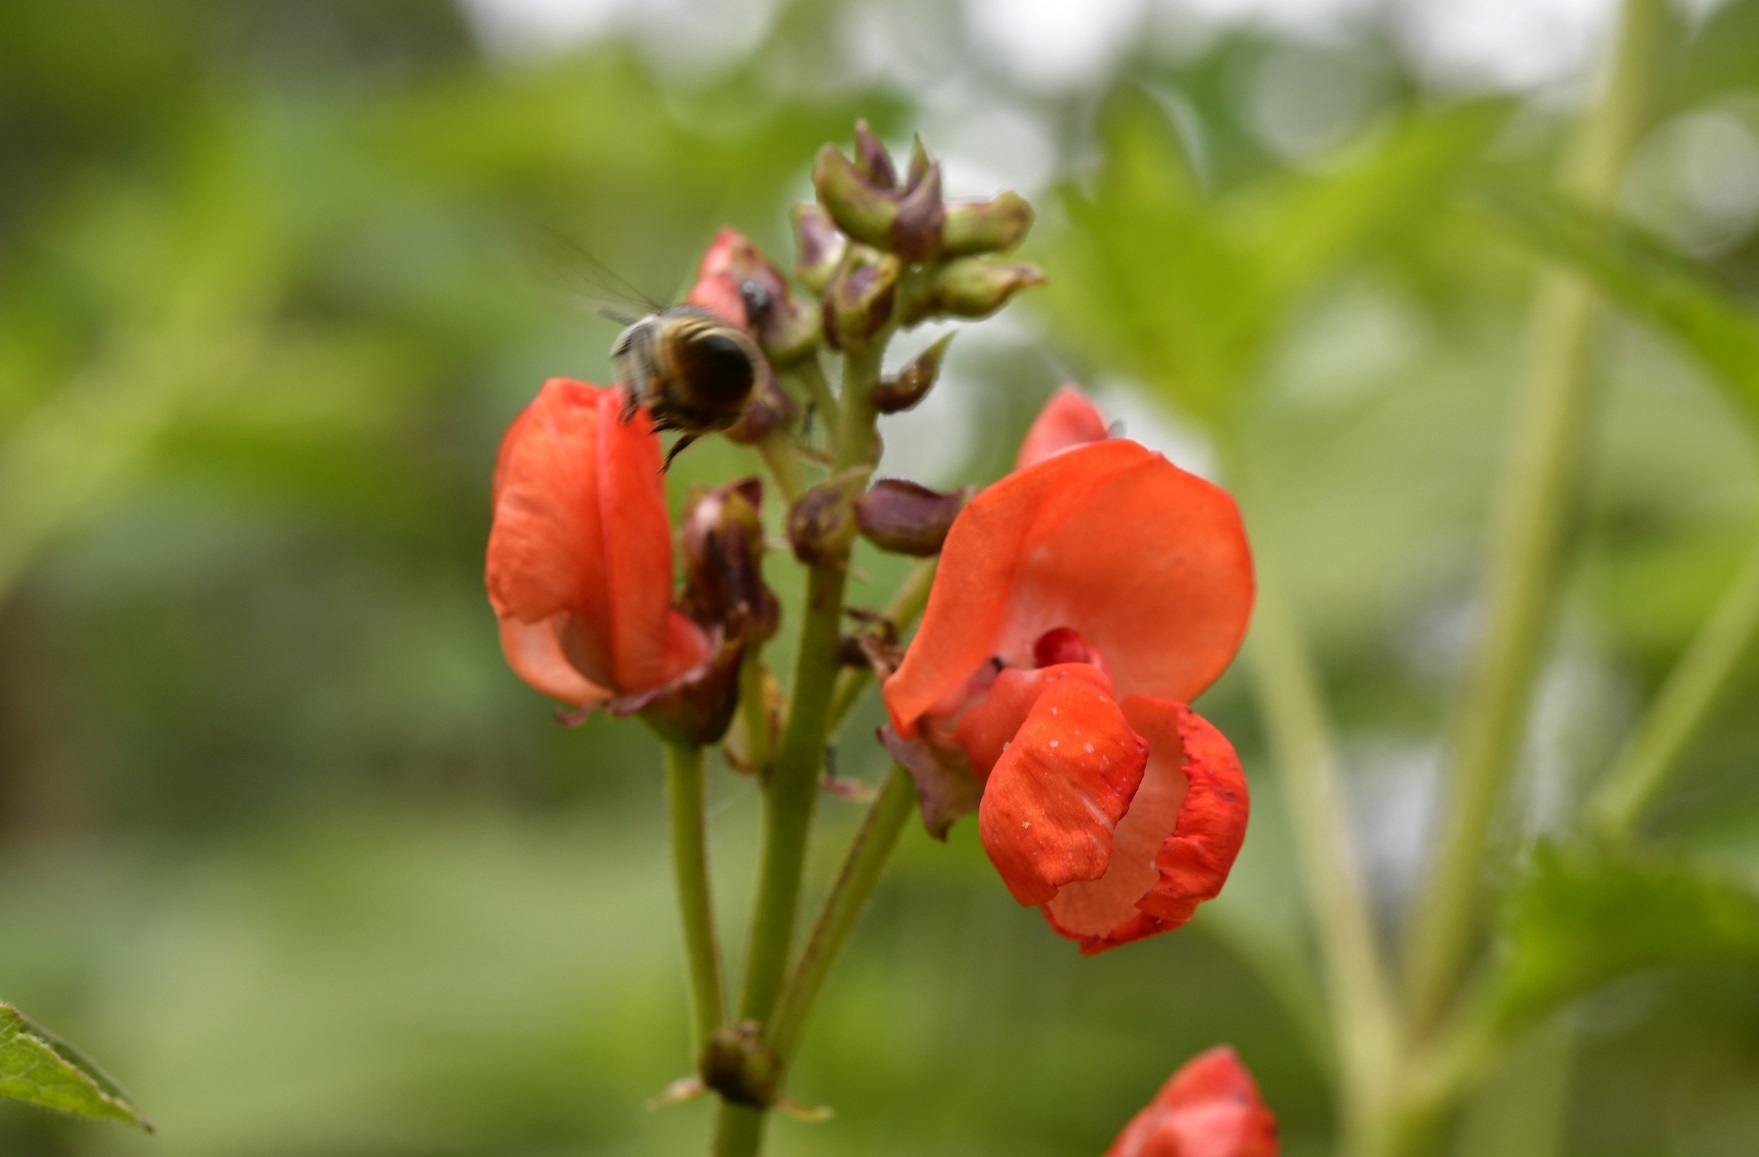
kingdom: Plantae
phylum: Tracheophyta
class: Magnoliopsida
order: Fabales
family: Fabaceae
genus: Phaseolus
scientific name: Phaseolus coccineus
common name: Runner bean
